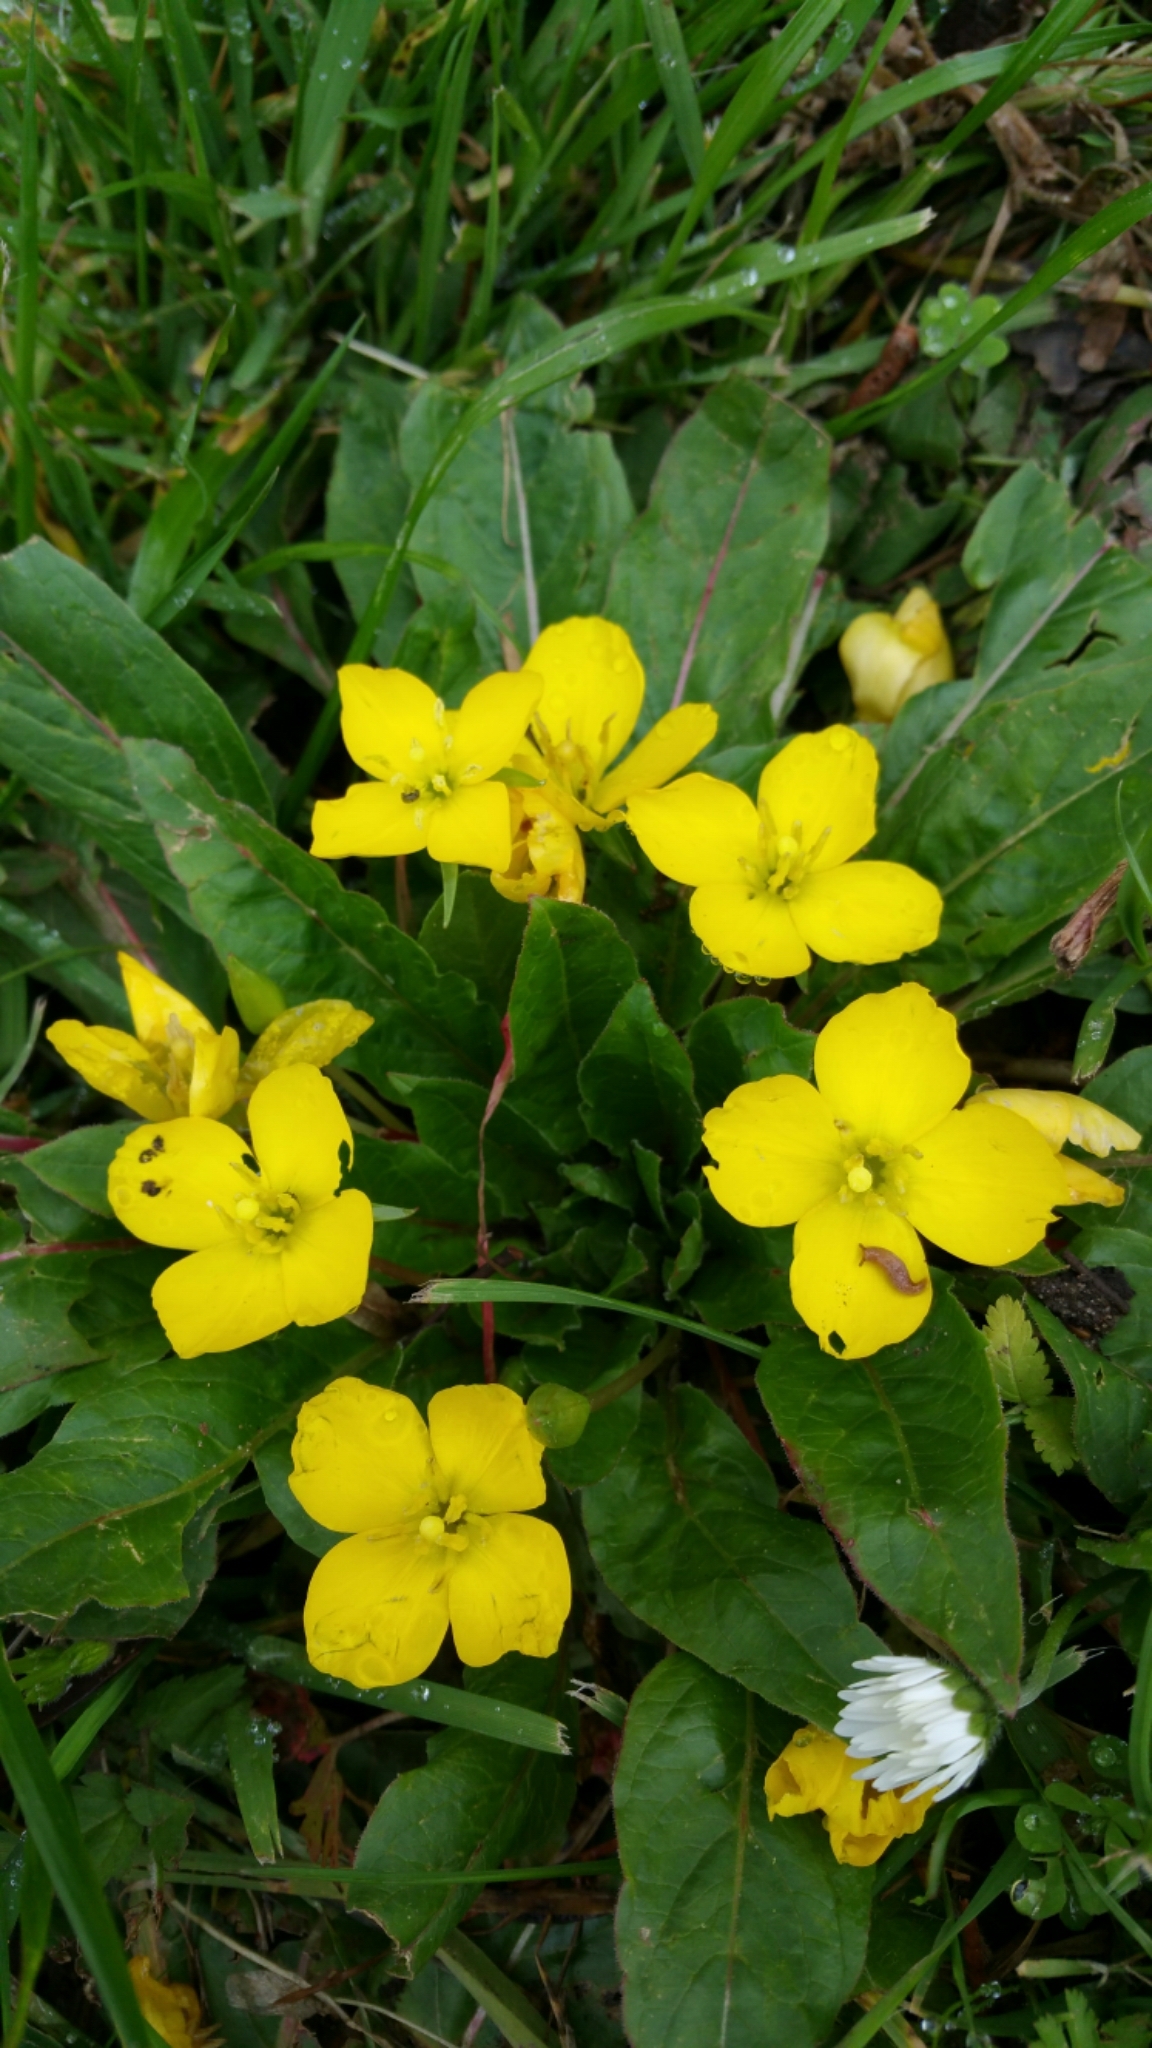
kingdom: Plantae
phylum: Tracheophyta
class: Magnoliopsida
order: Myrtales
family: Onagraceae
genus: Taraxia
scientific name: Taraxia ovata
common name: Goldeneggs
